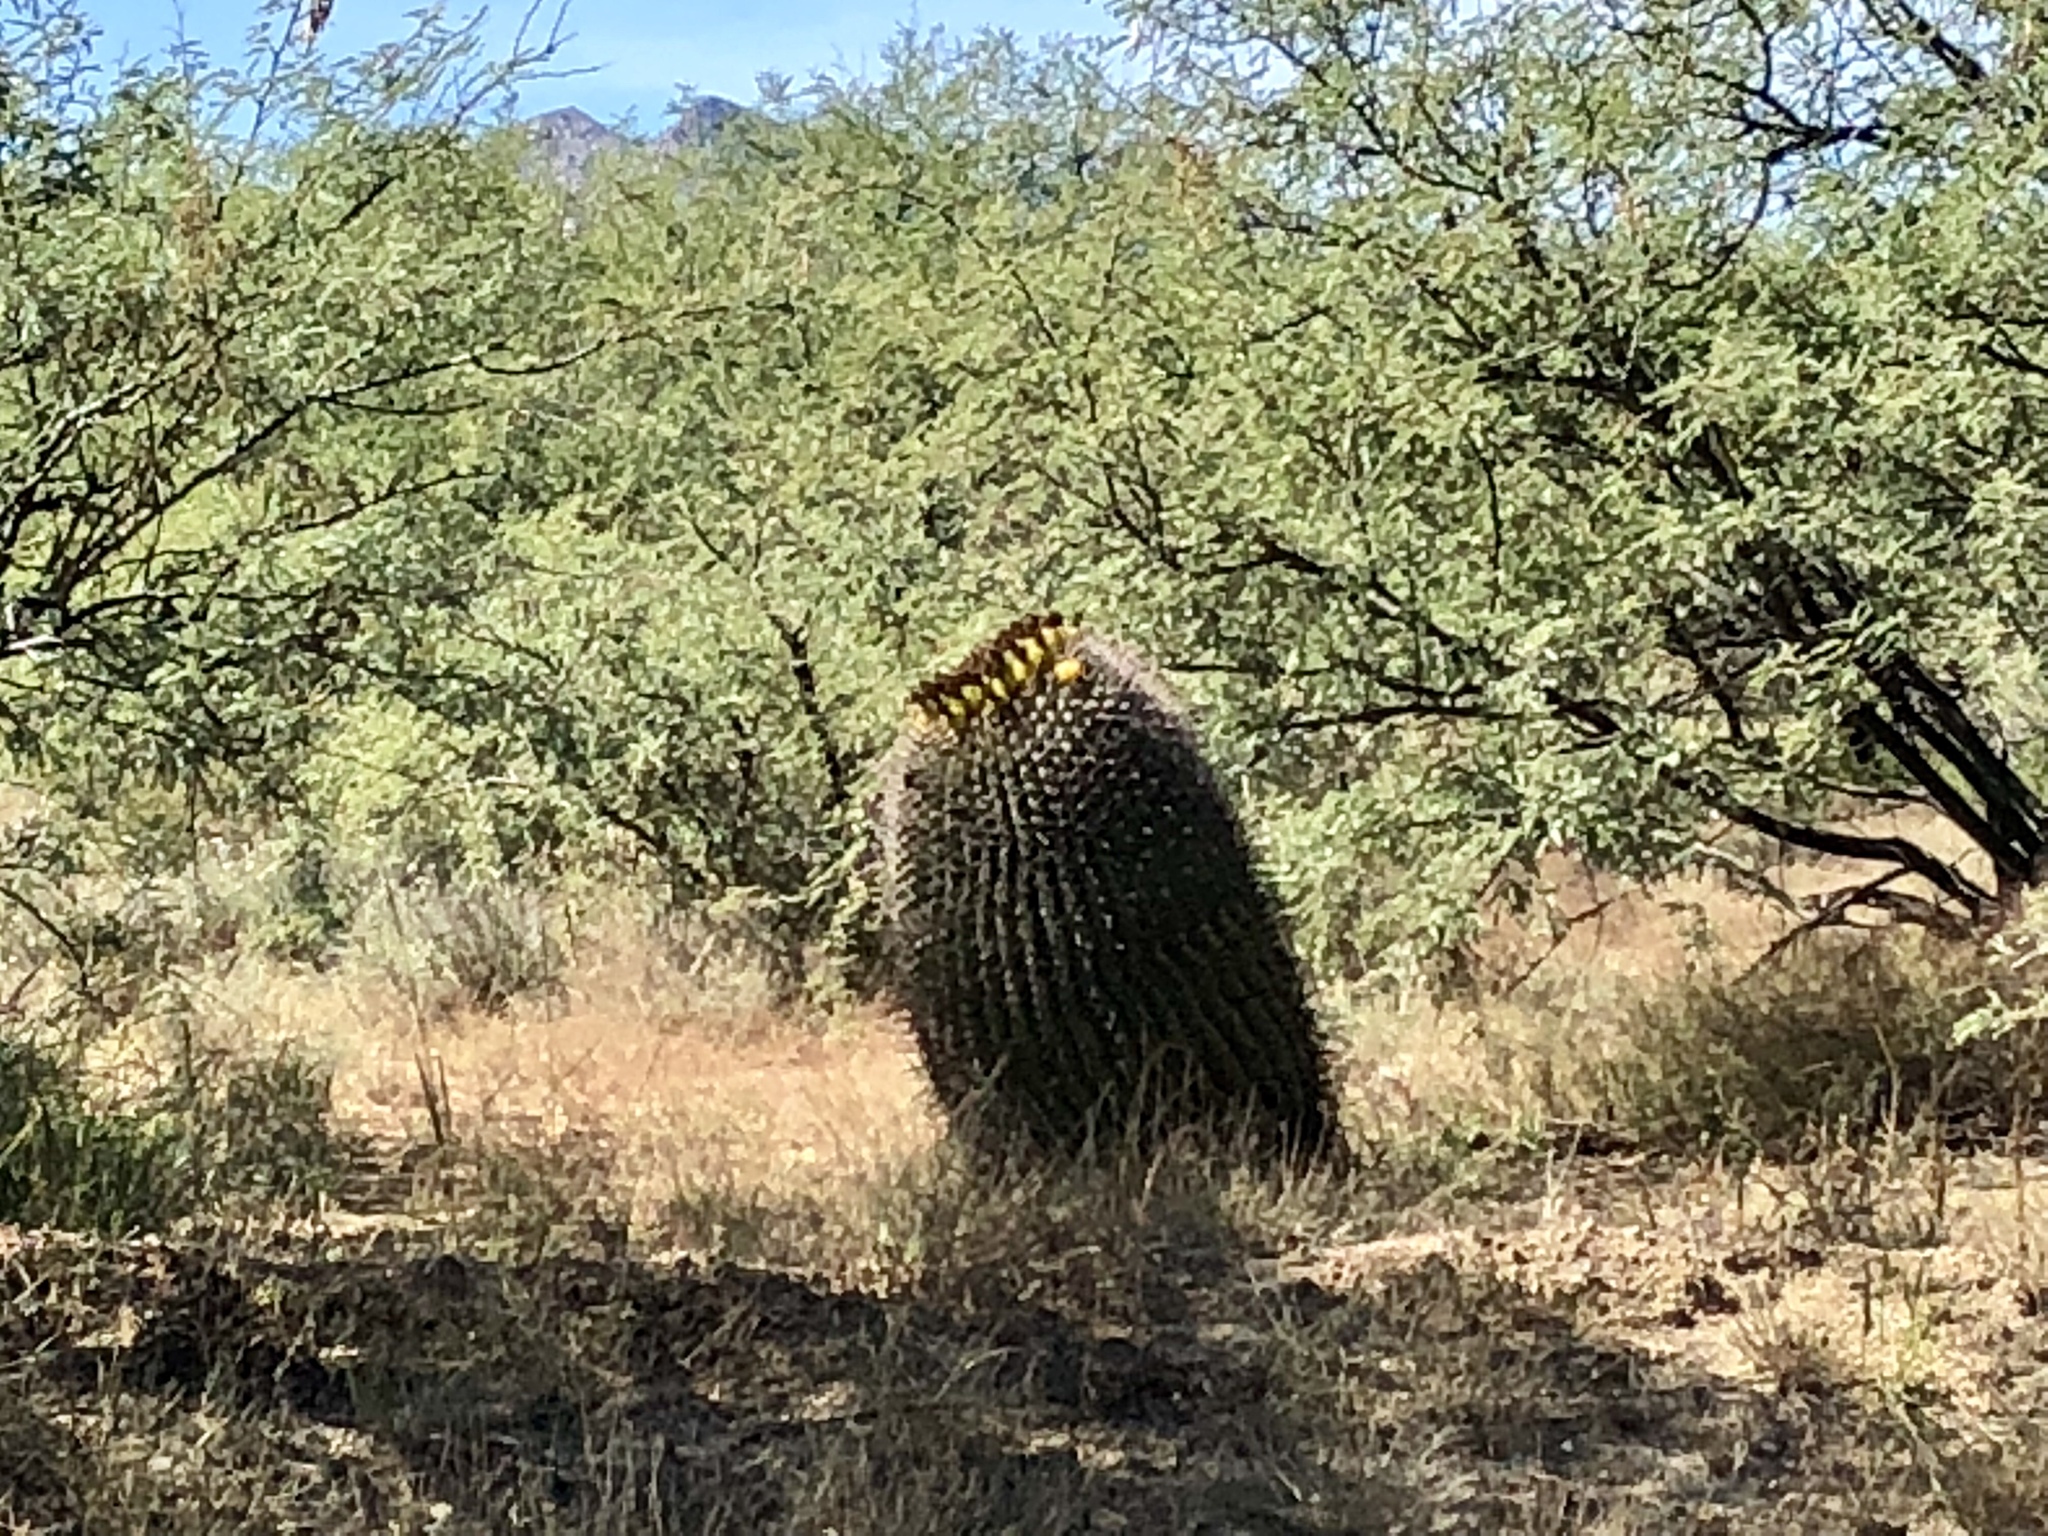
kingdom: Plantae
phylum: Tracheophyta
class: Magnoliopsida
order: Caryophyllales
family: Cactaceae
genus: Ferocactus
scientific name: Ferocactus wislizeni
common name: Candy barrel cactus
